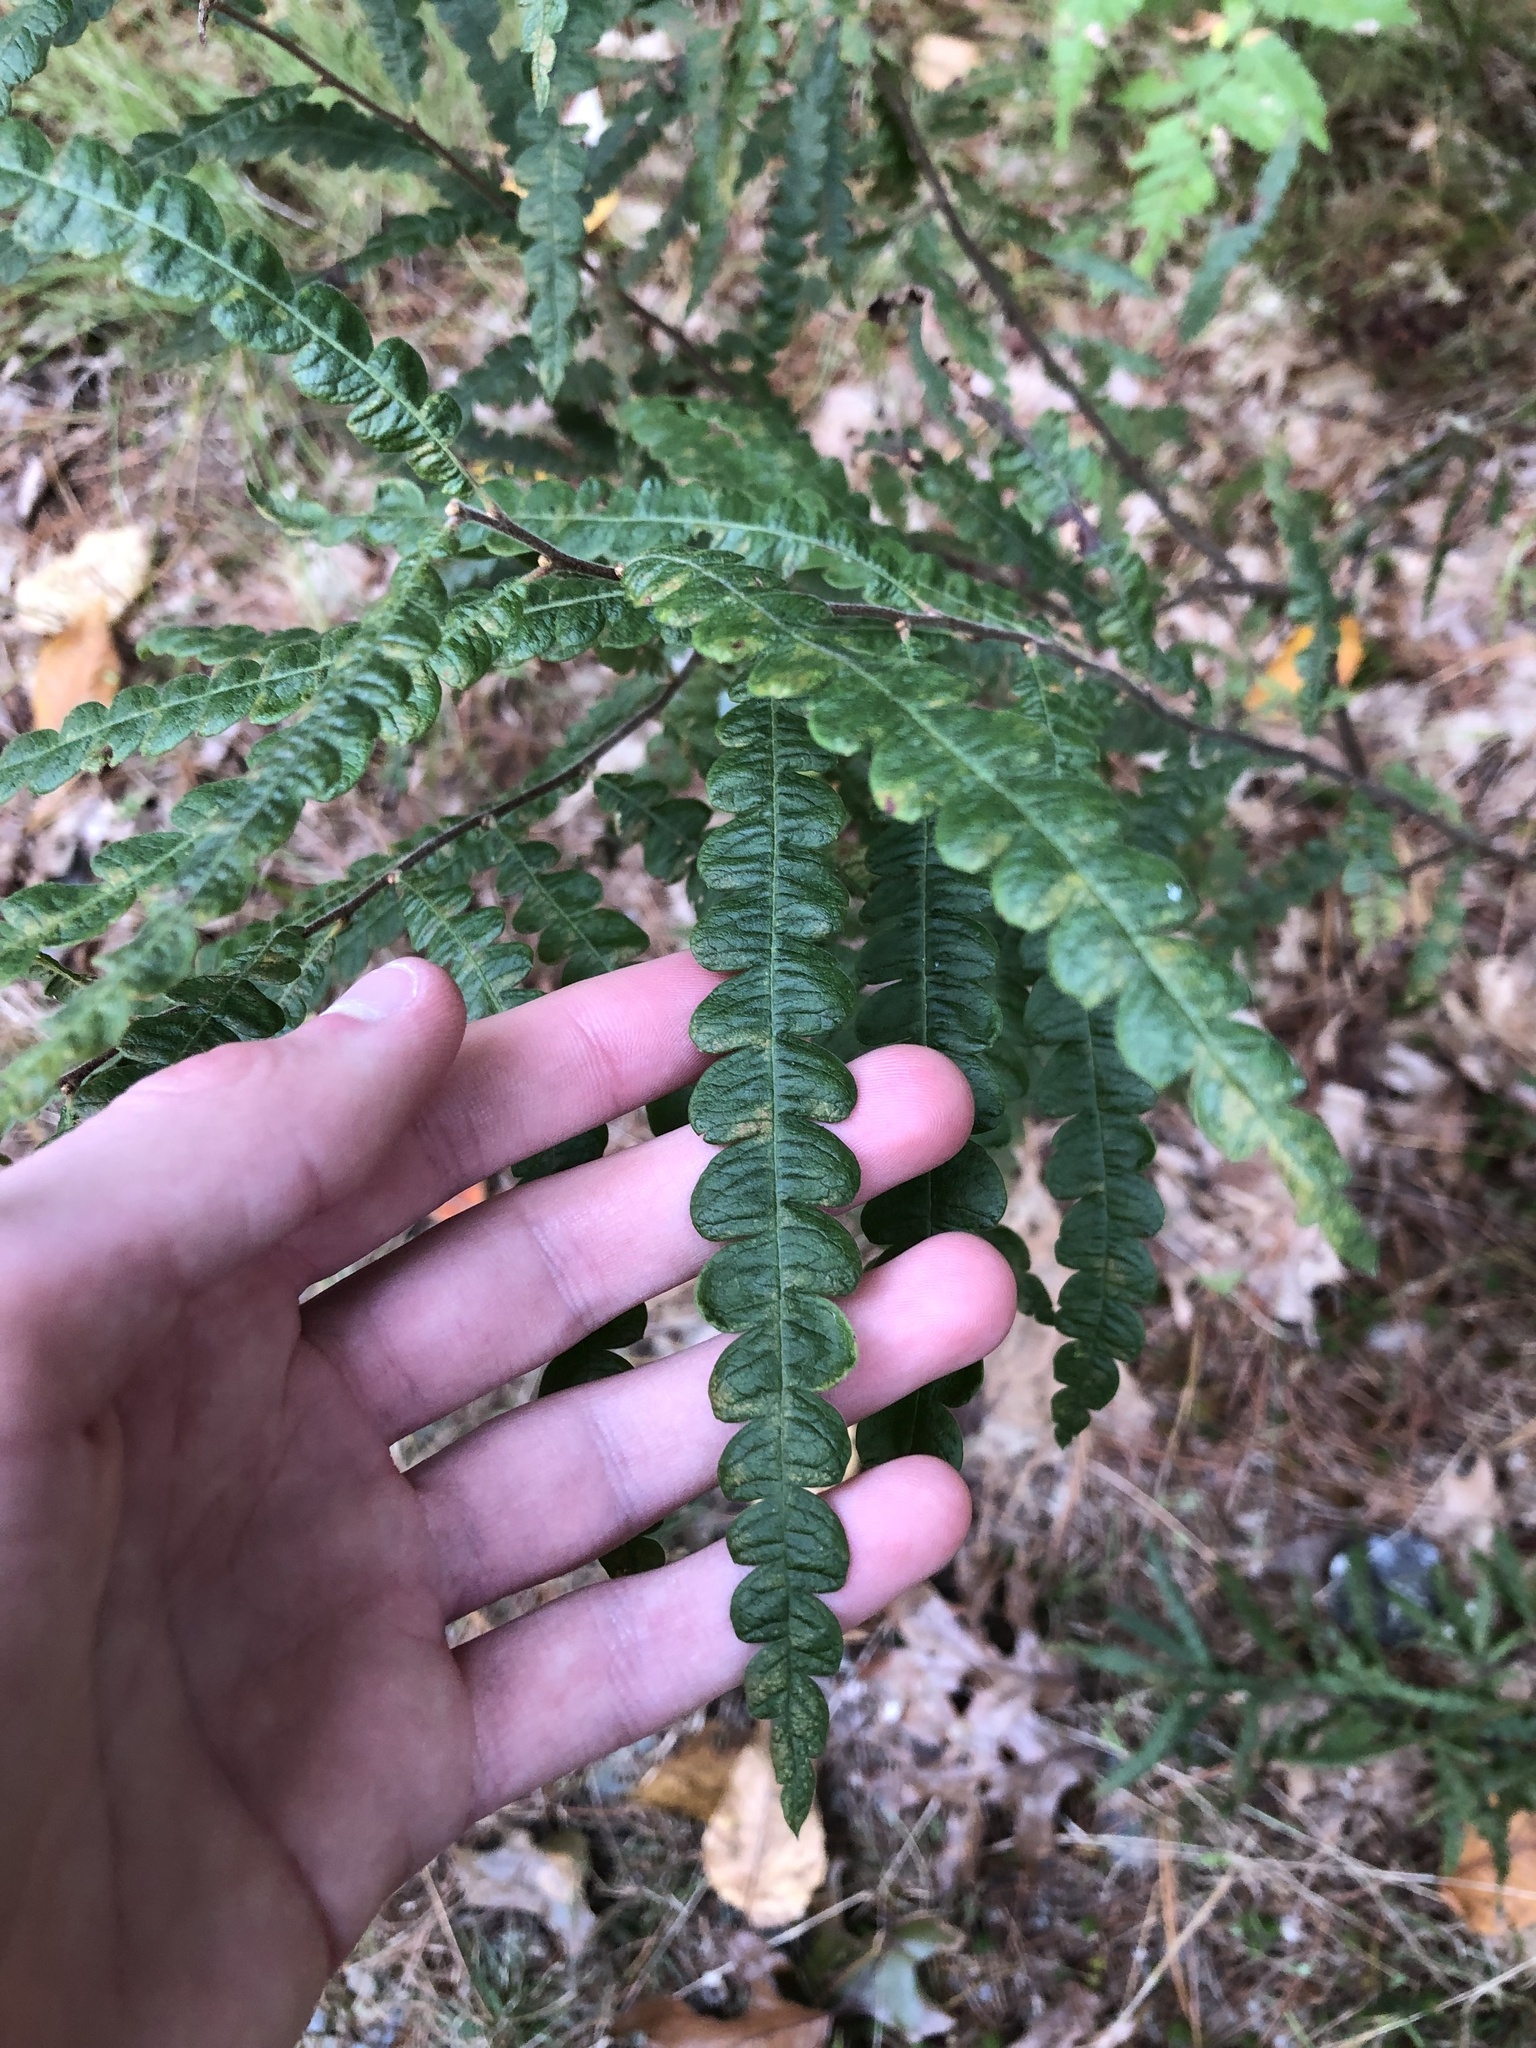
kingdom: Plantae
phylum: Tracheophyta
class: Magnoliopsida
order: Fagales
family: Myricaceae
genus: Comptonia
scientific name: Comptonia peregrina
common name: Sweet-fern
